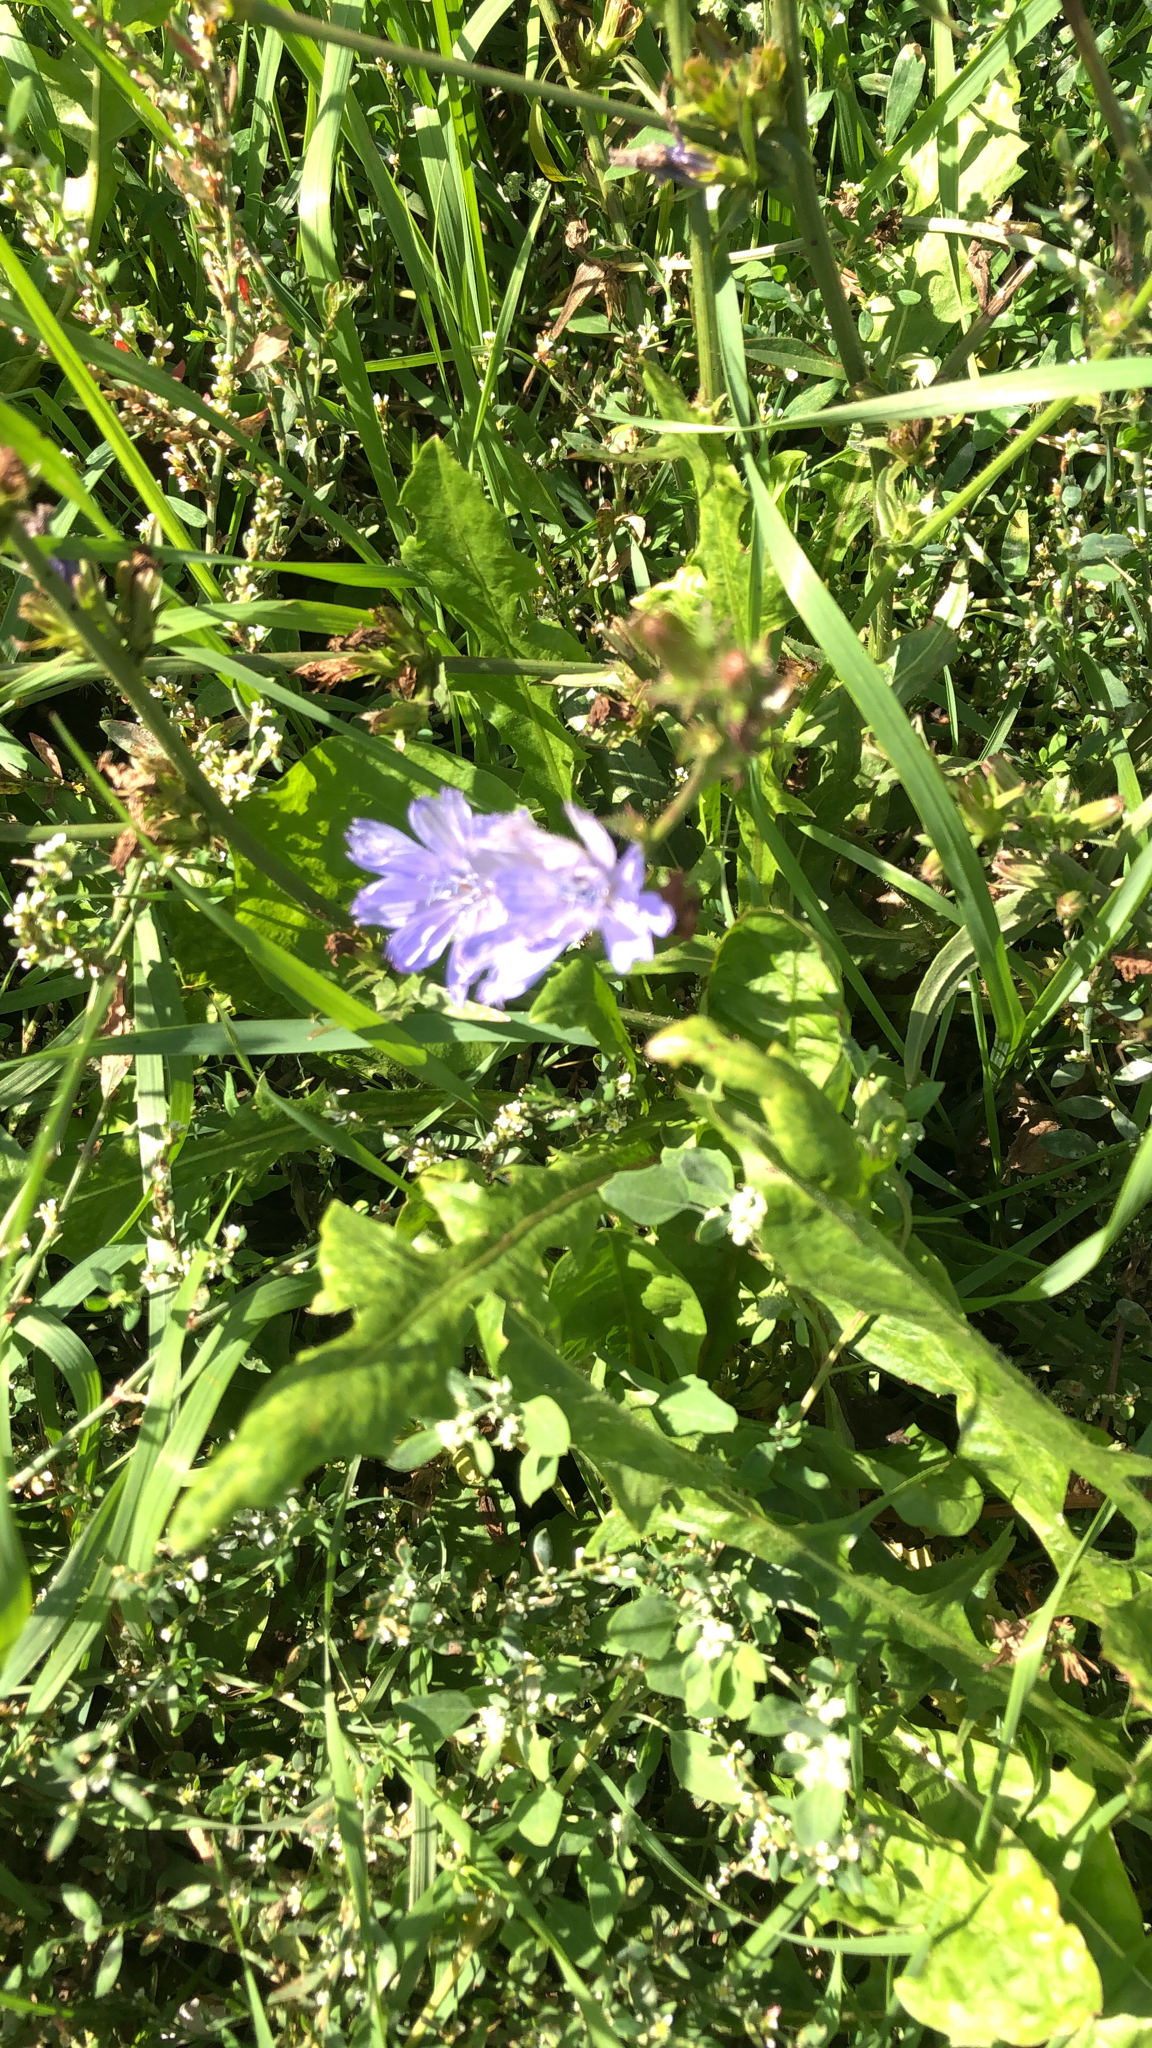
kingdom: Plantae
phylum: Tracheophyta
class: Magnoliopsida
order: Asterales
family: Asteraceae
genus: Cichorium
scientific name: Cichorium intybus
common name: Chicory
